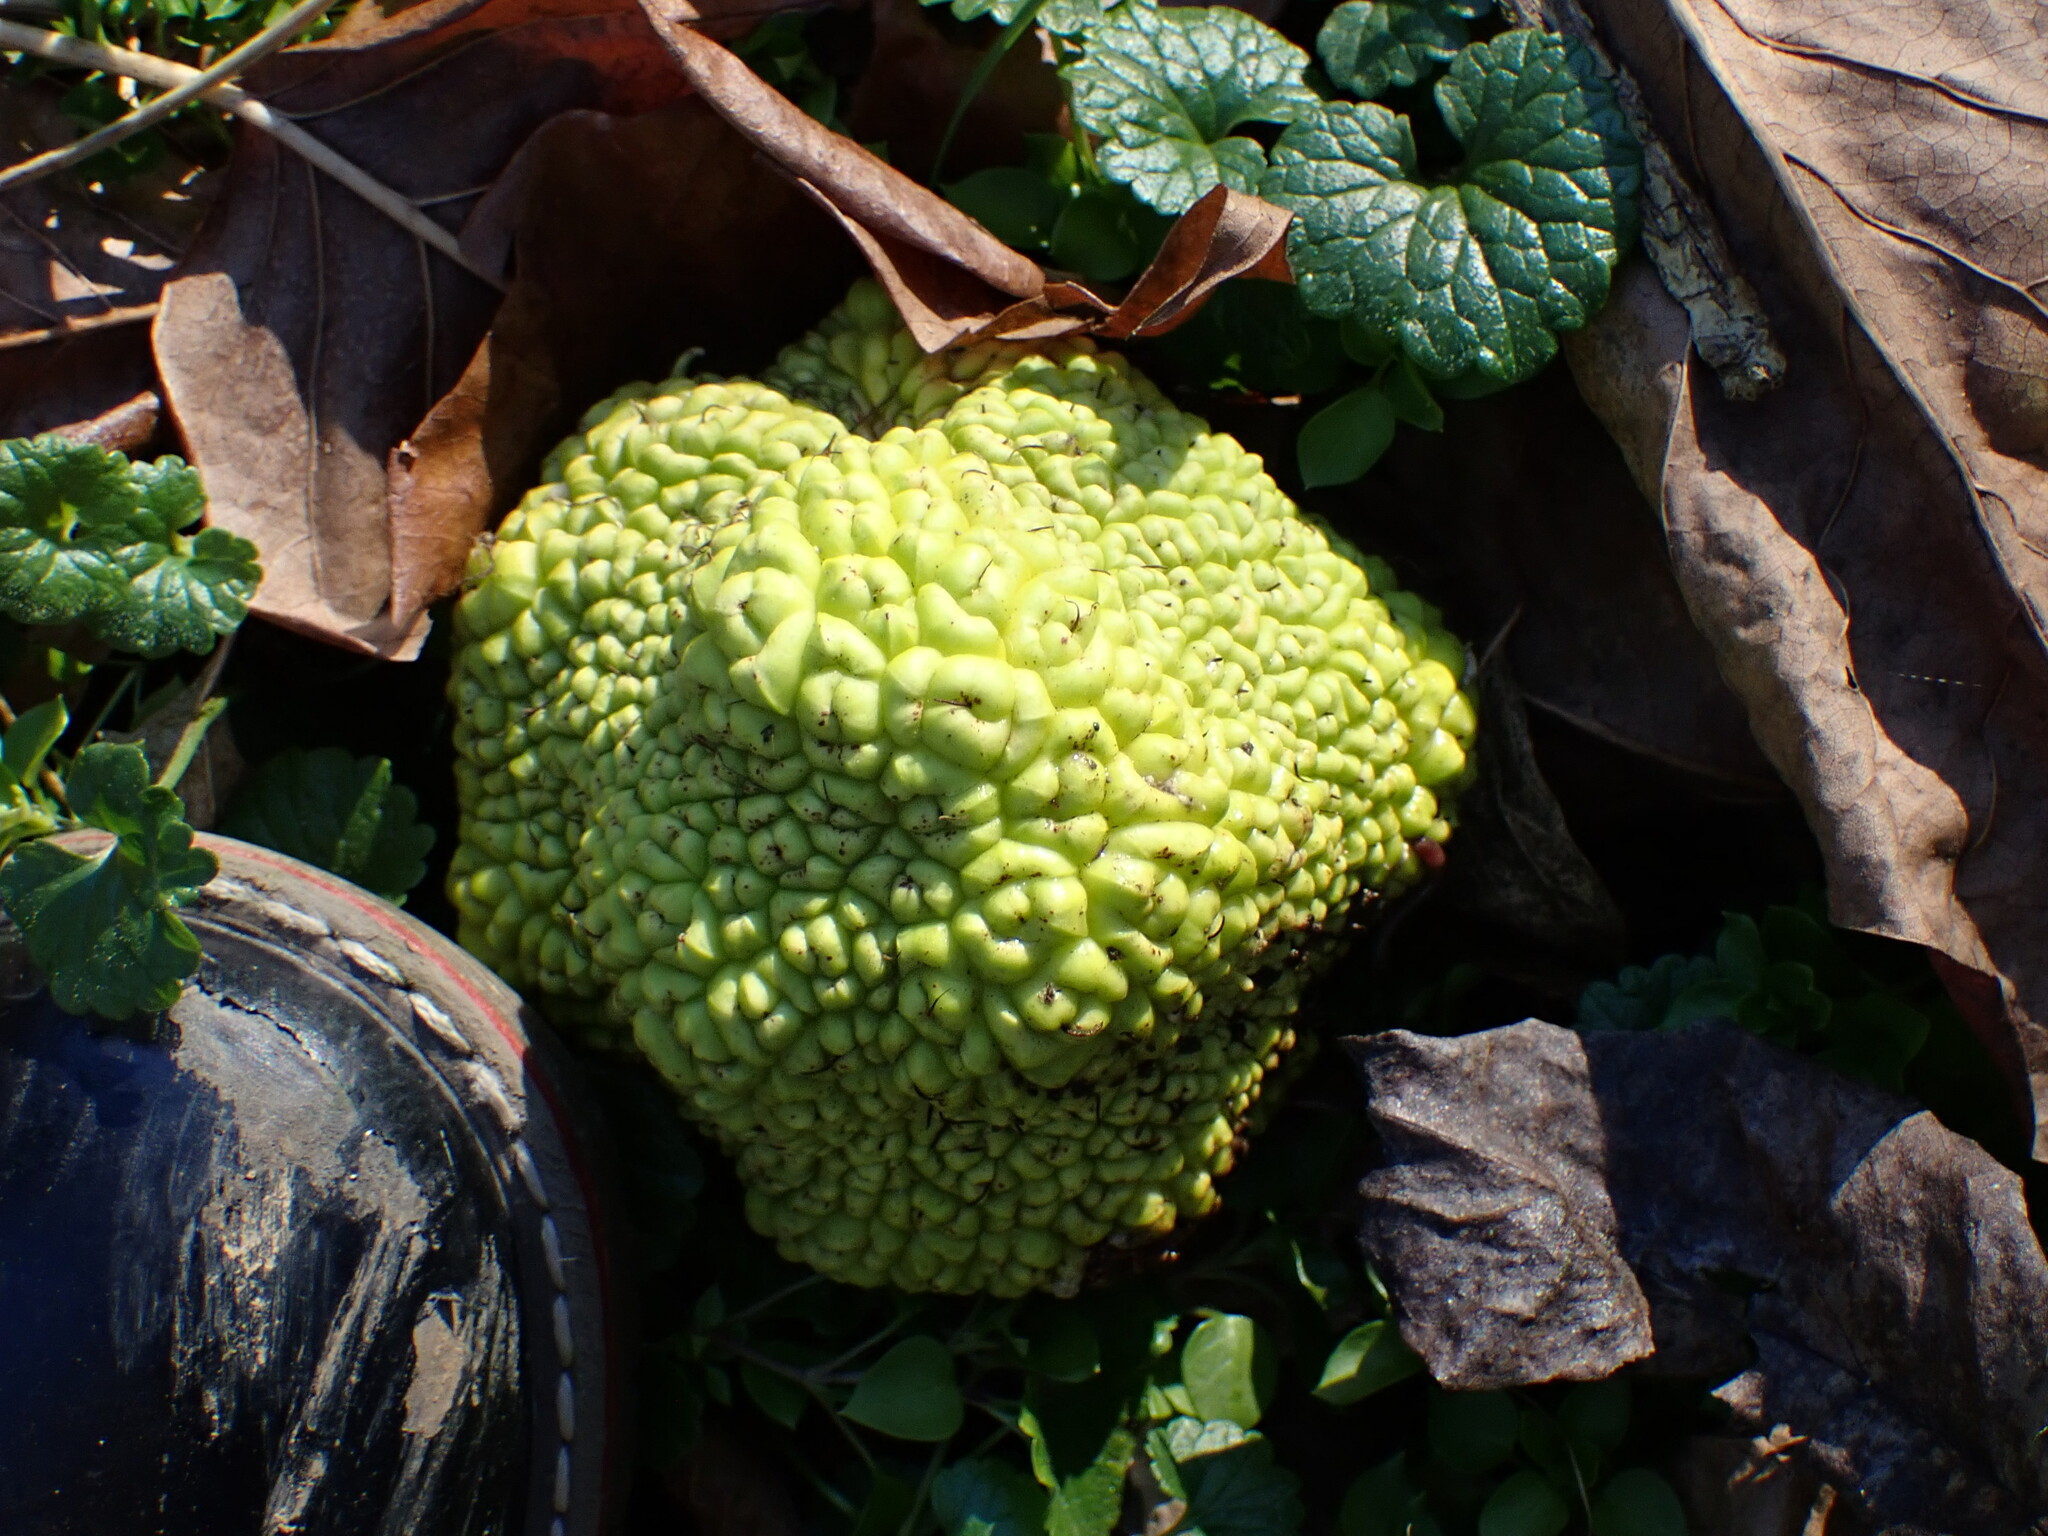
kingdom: Plantae
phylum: Tracheophyta
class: Magnoliopsida
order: Rosales
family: Moraceae
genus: Maclura
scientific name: Maclura pomifera
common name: Osage-orange
